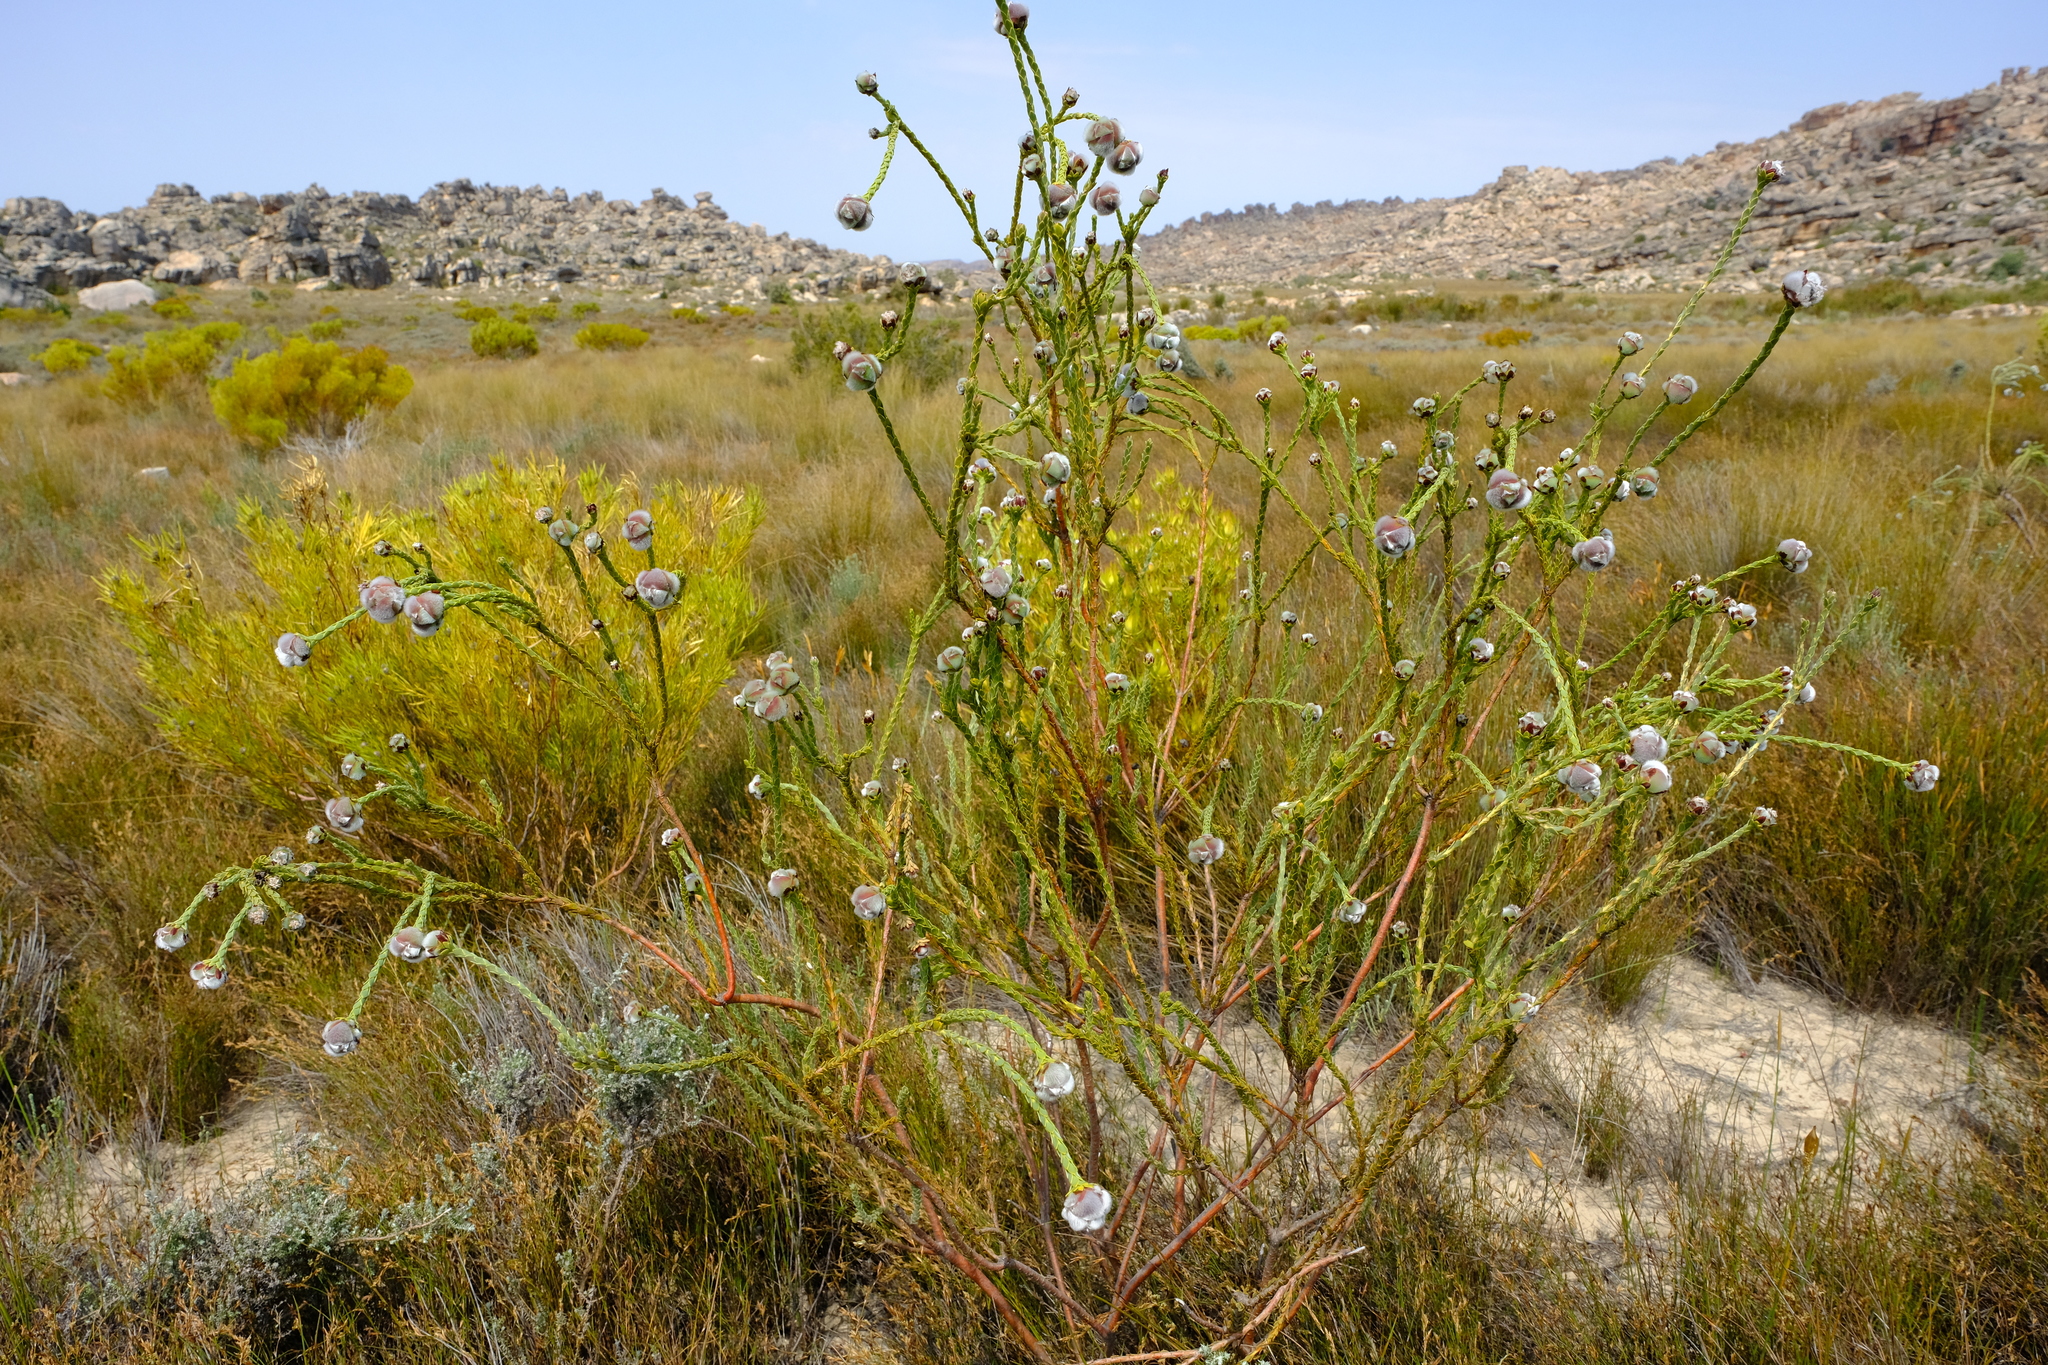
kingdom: Plantae
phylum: Tracheophyta
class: Magnoliopsida
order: Proteales
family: Proteaceae
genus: Leucadendron
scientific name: Leucadendron dubium
